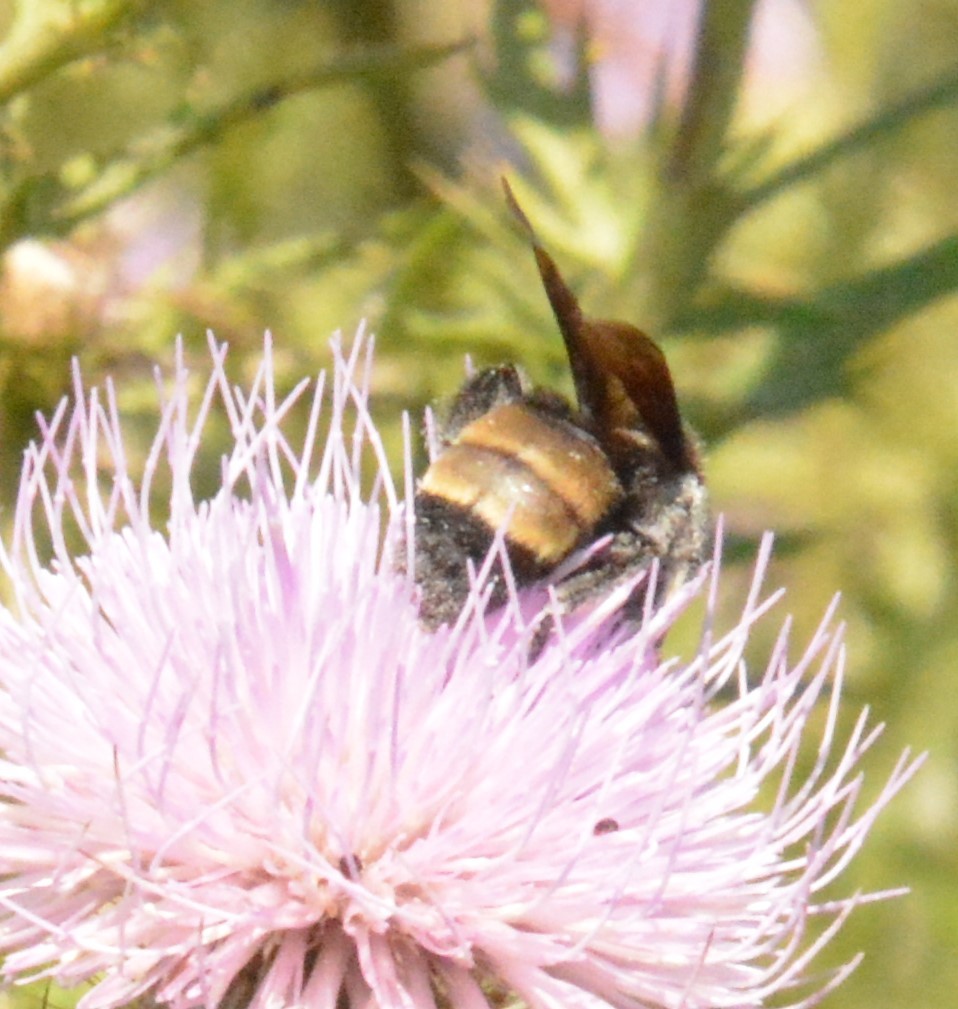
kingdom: Animalia
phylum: Arthropoda
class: Insecta
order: Hymenoptera
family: Apidae
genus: Bombus
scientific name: Bombus auricomus
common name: Black and gold bumble bee
